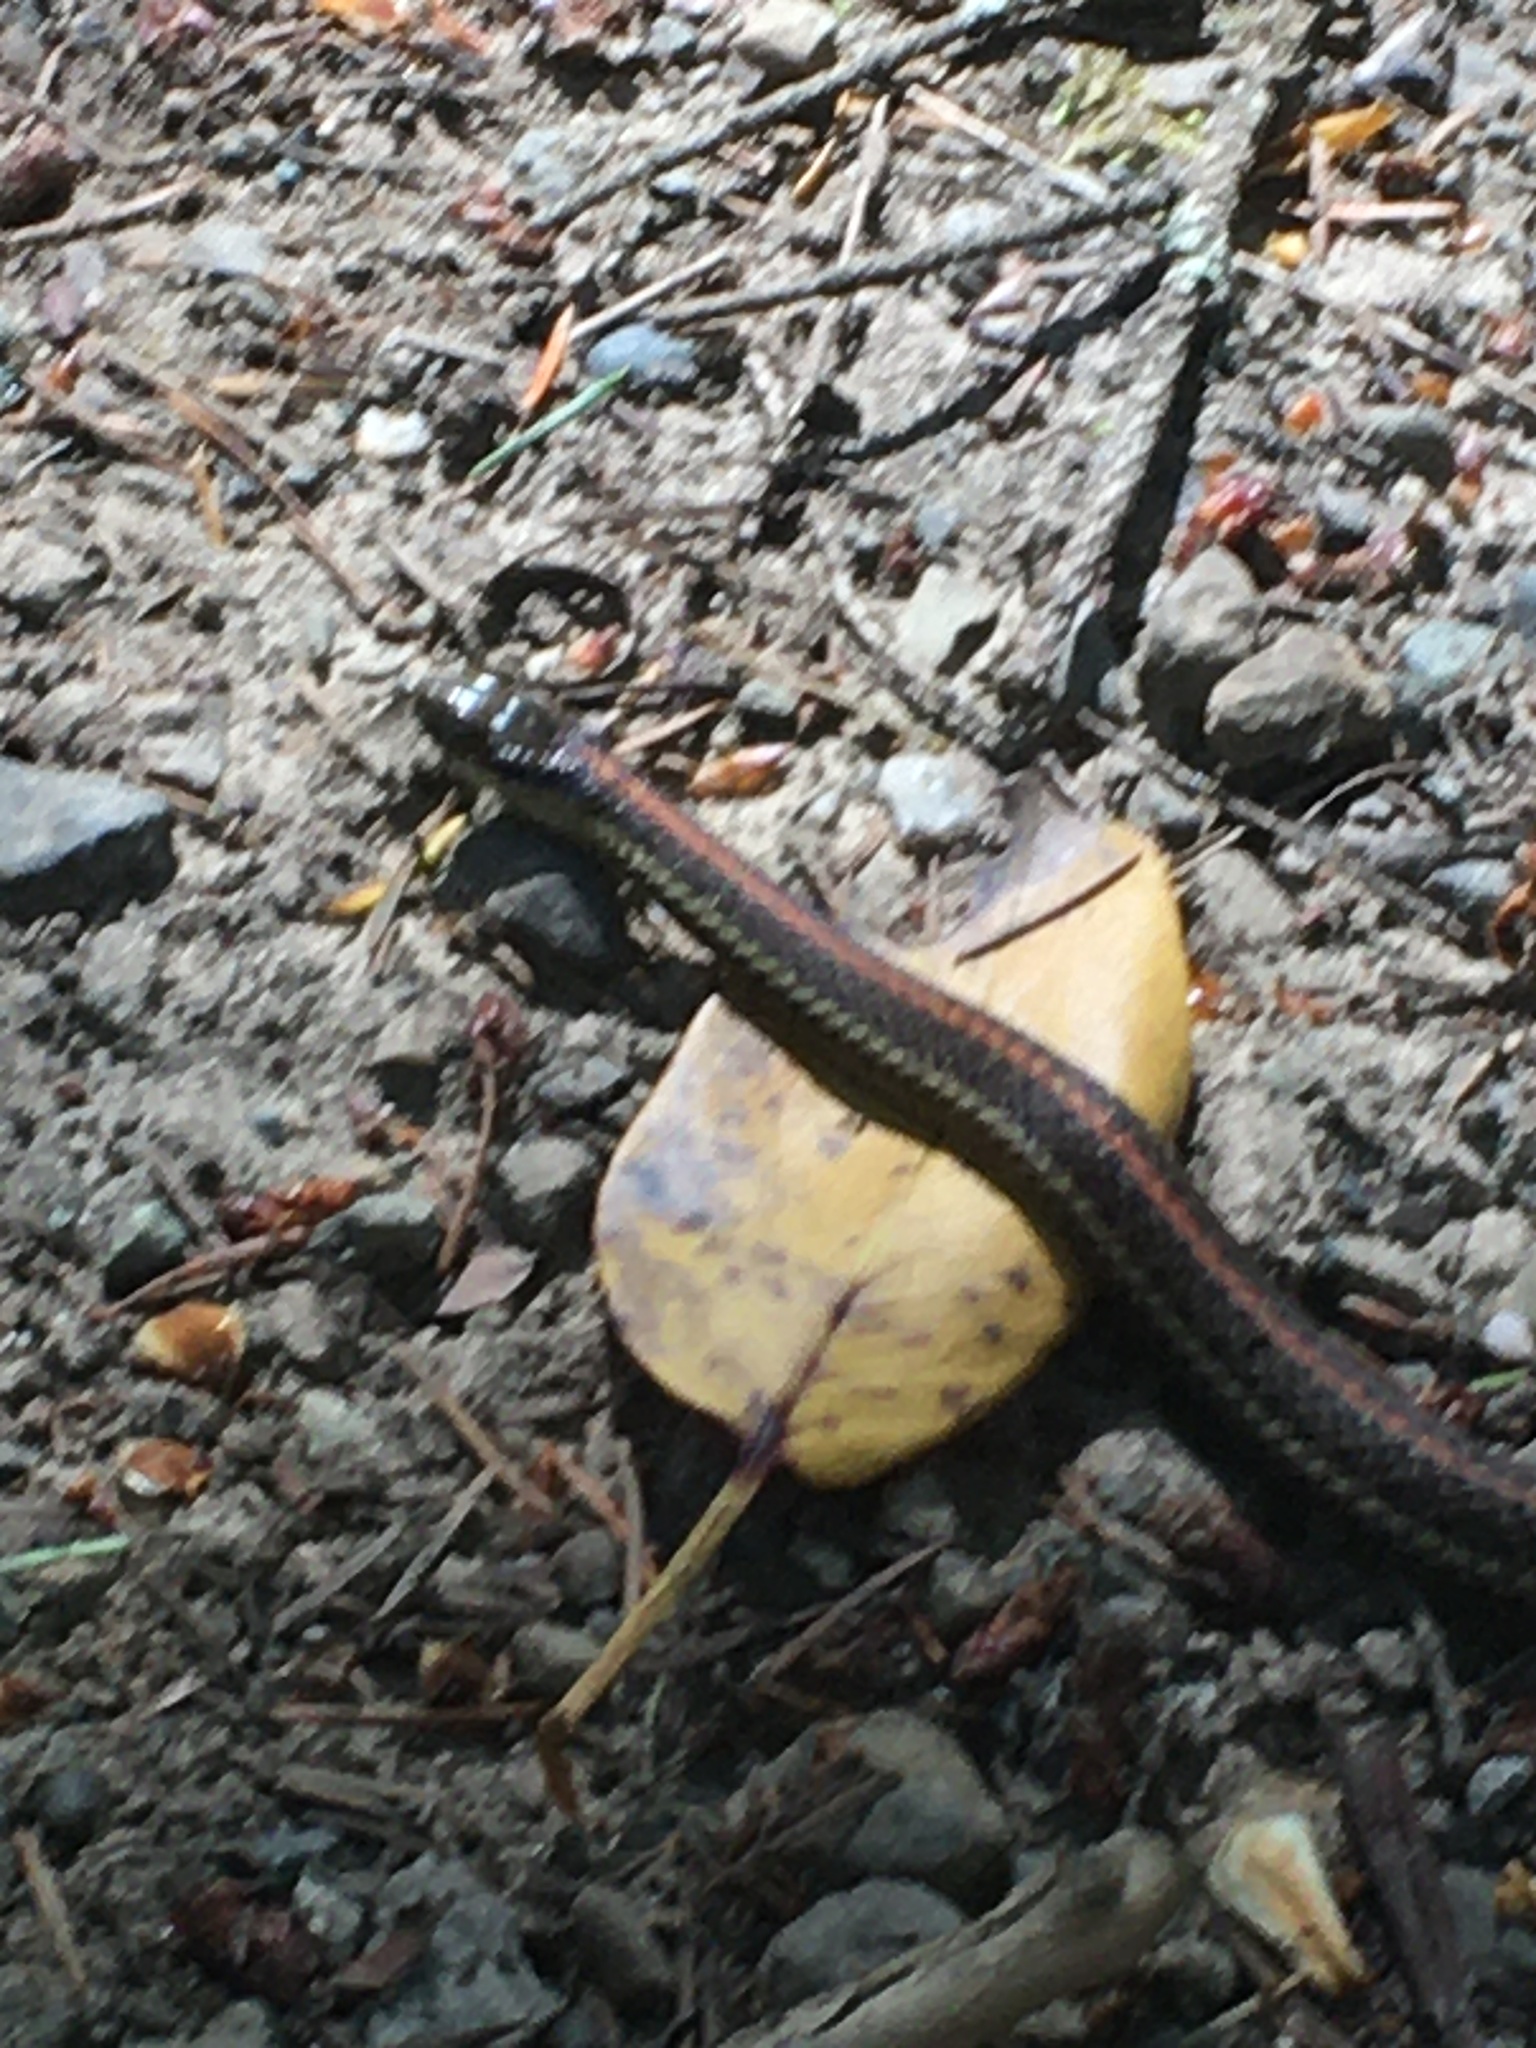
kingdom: Animalia
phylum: Chordata
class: Squamata
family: Colubridae
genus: Thamnophis
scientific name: Thamnophis ordinoides
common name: Northwestern garter snake
